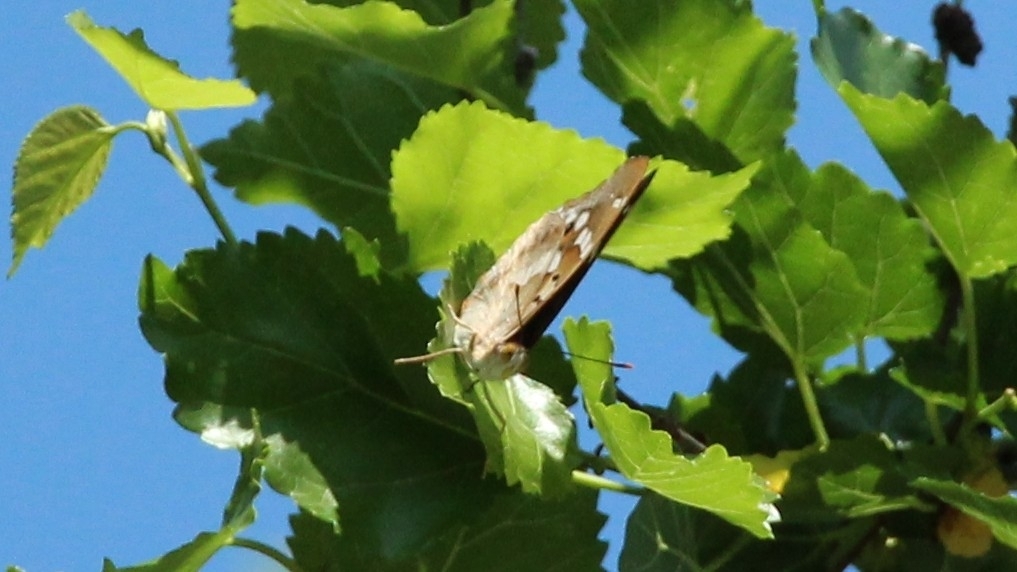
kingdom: Animalia
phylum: Arthropoda
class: Insecta
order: Lepidoptera
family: Nymphalidae
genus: Apatura
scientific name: Apatura ilia
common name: Lesser purple emperor
